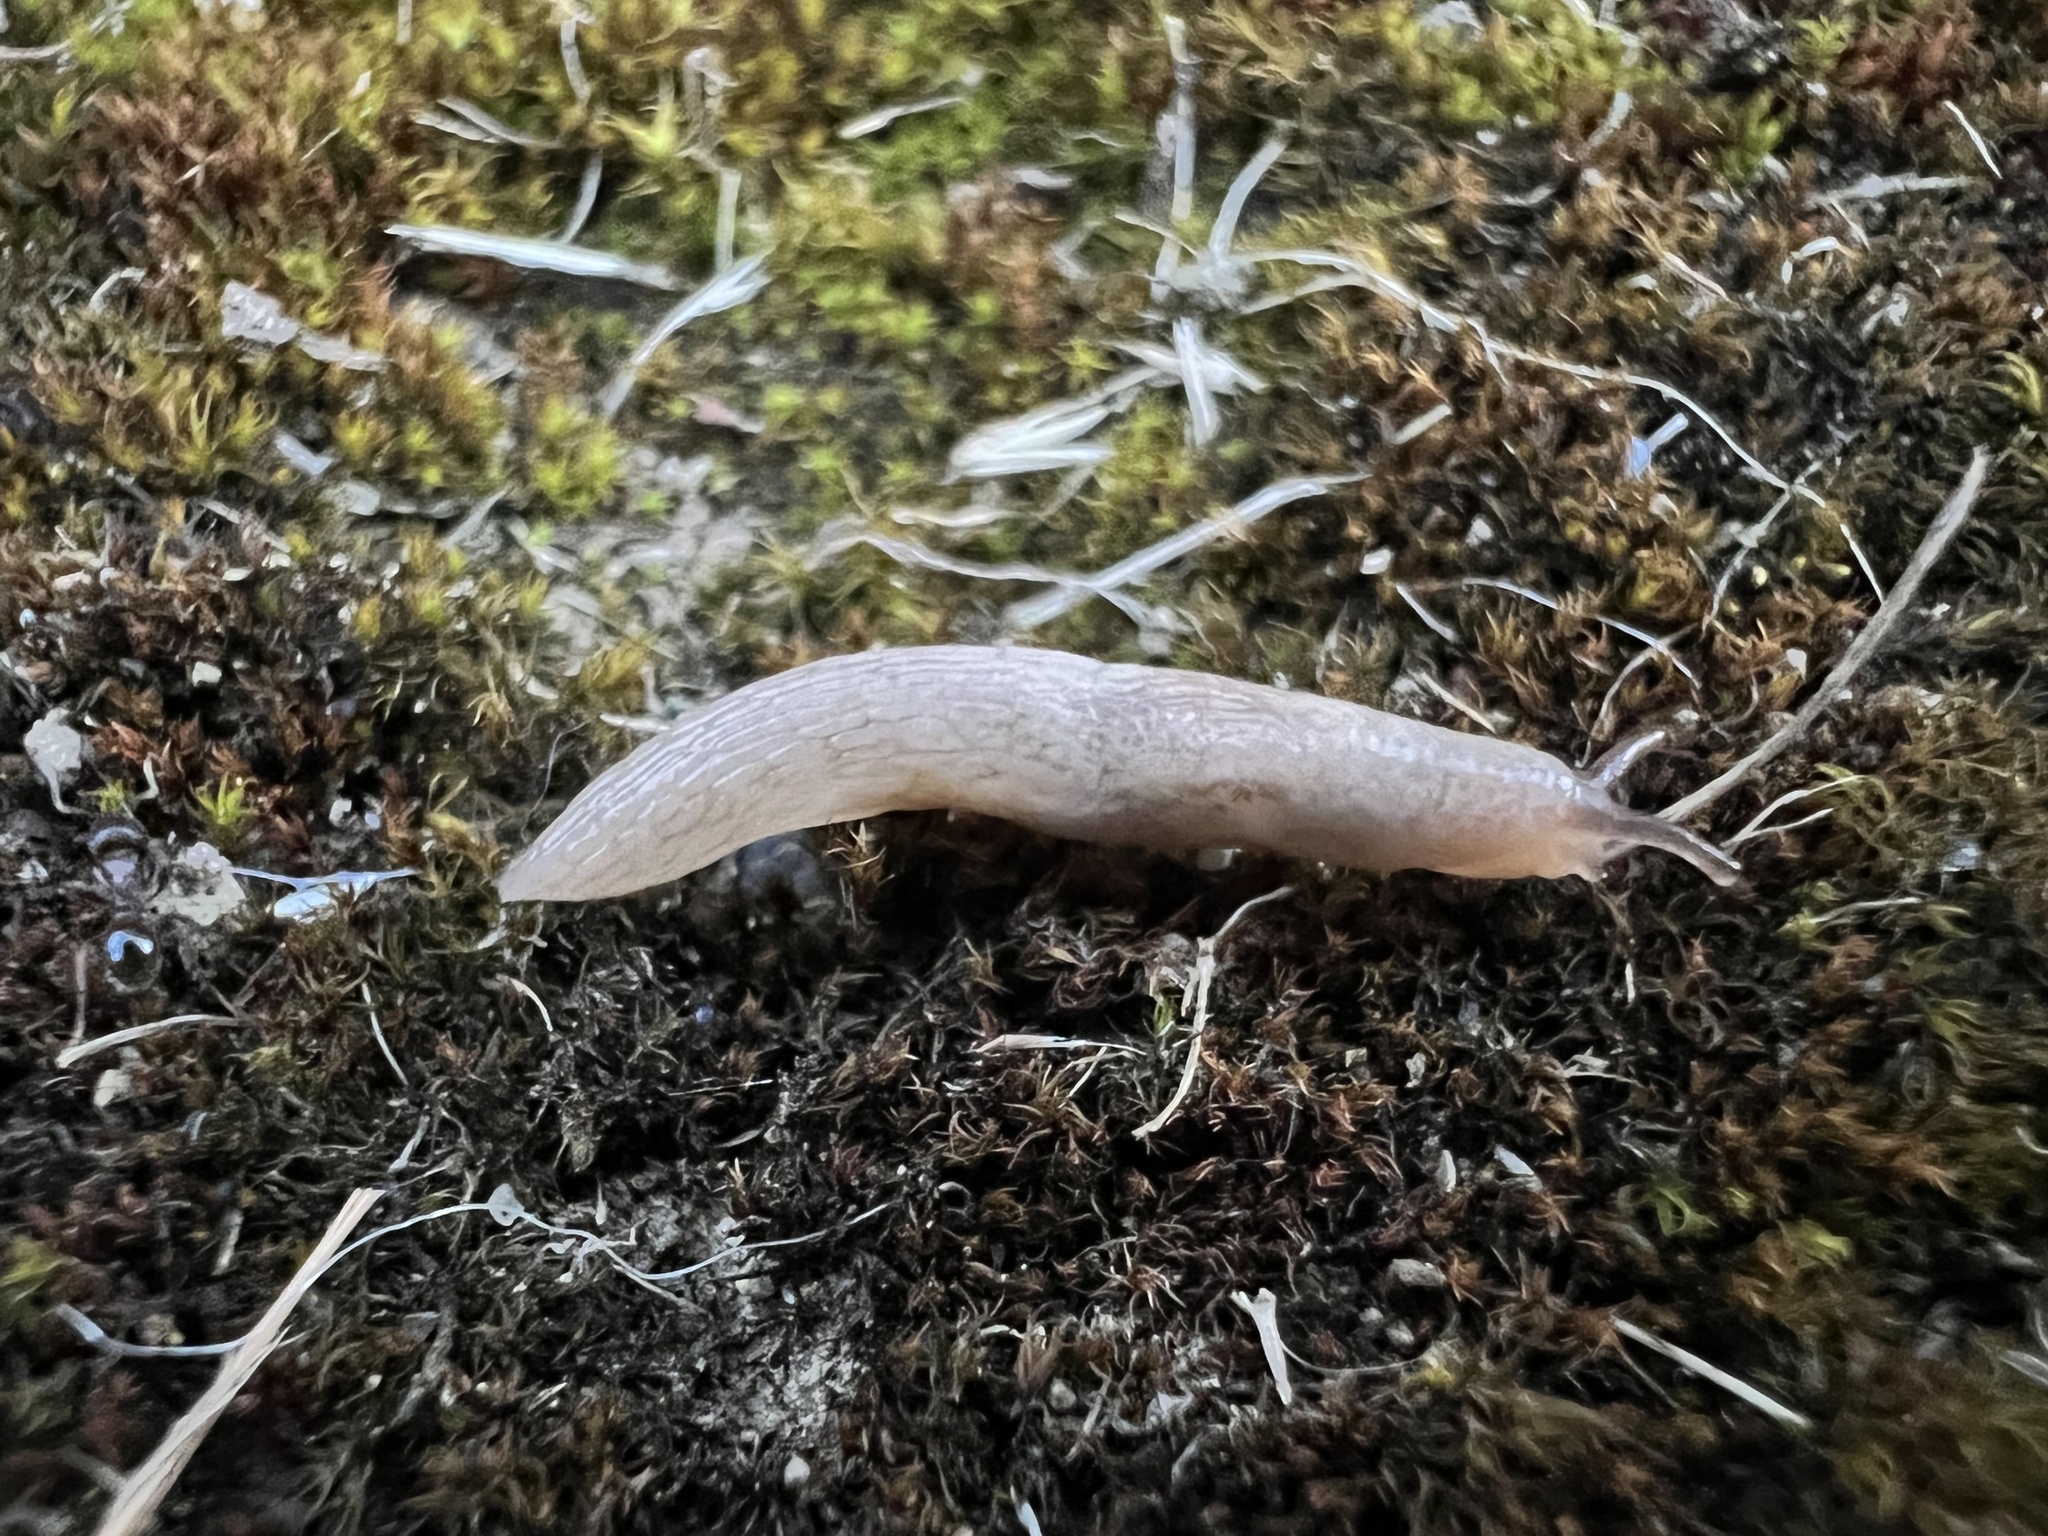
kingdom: Animalia
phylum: Mollusca
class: Gastropoda
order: Stylommatophora
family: Agriolimacidae
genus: Deroceras
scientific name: Deroceras reticulatum
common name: Gray field slug
